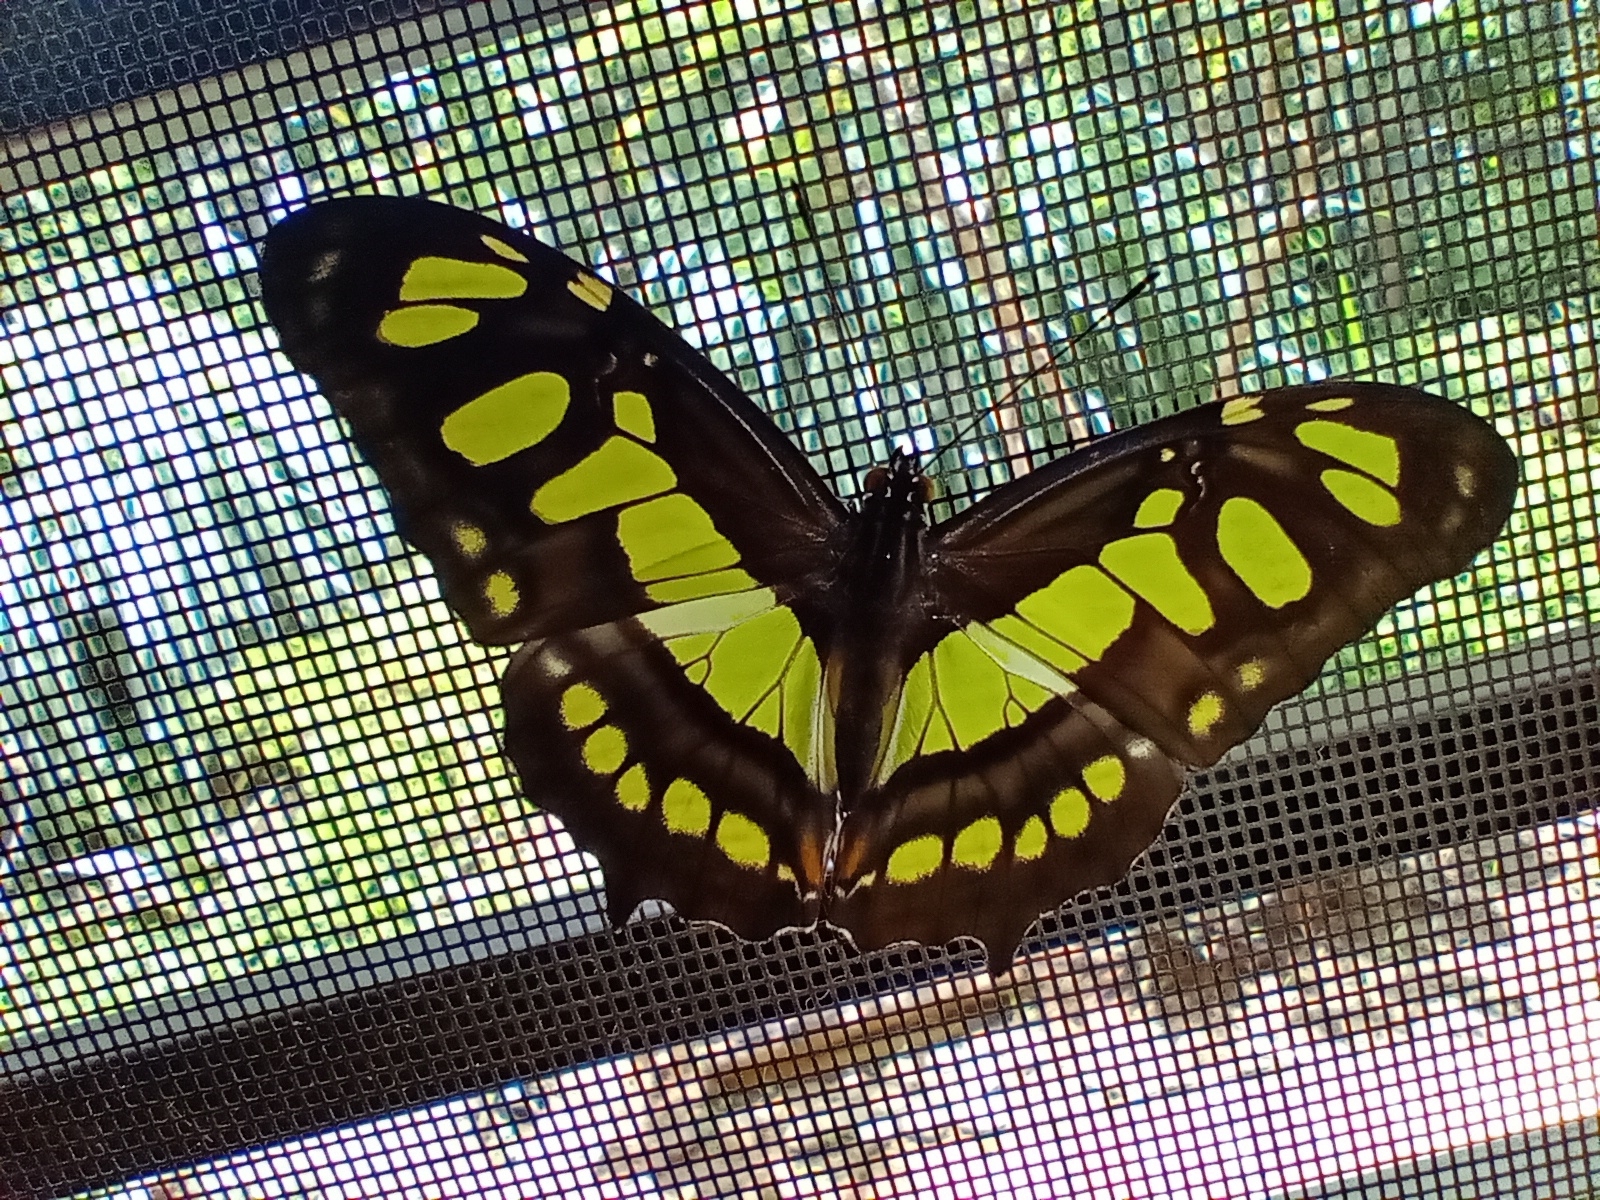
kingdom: Animalia
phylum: Arthropoda
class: Insecta
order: Lepidoptera
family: Nymphalidae
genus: Siproeta
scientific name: Siproeta stelenes
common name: Malachite
